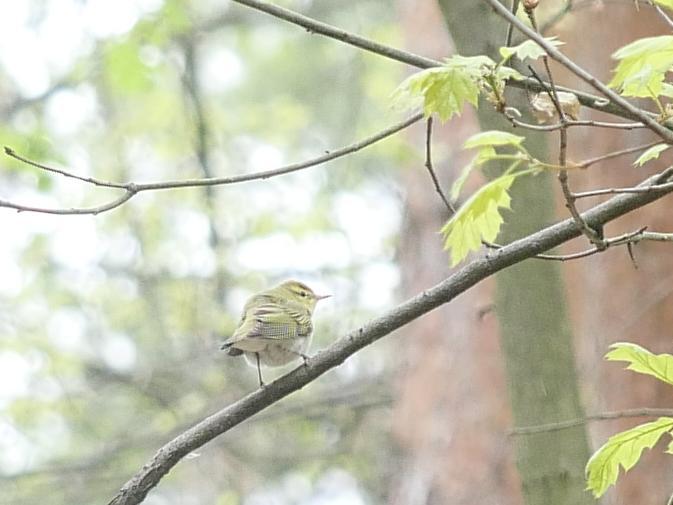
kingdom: Animalia
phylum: Chordata
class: Aves
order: Passeriformes
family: Phylloscopidae
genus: Phylloscopus
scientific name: Phylloscopus sibillatrix
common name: Wood warbler
